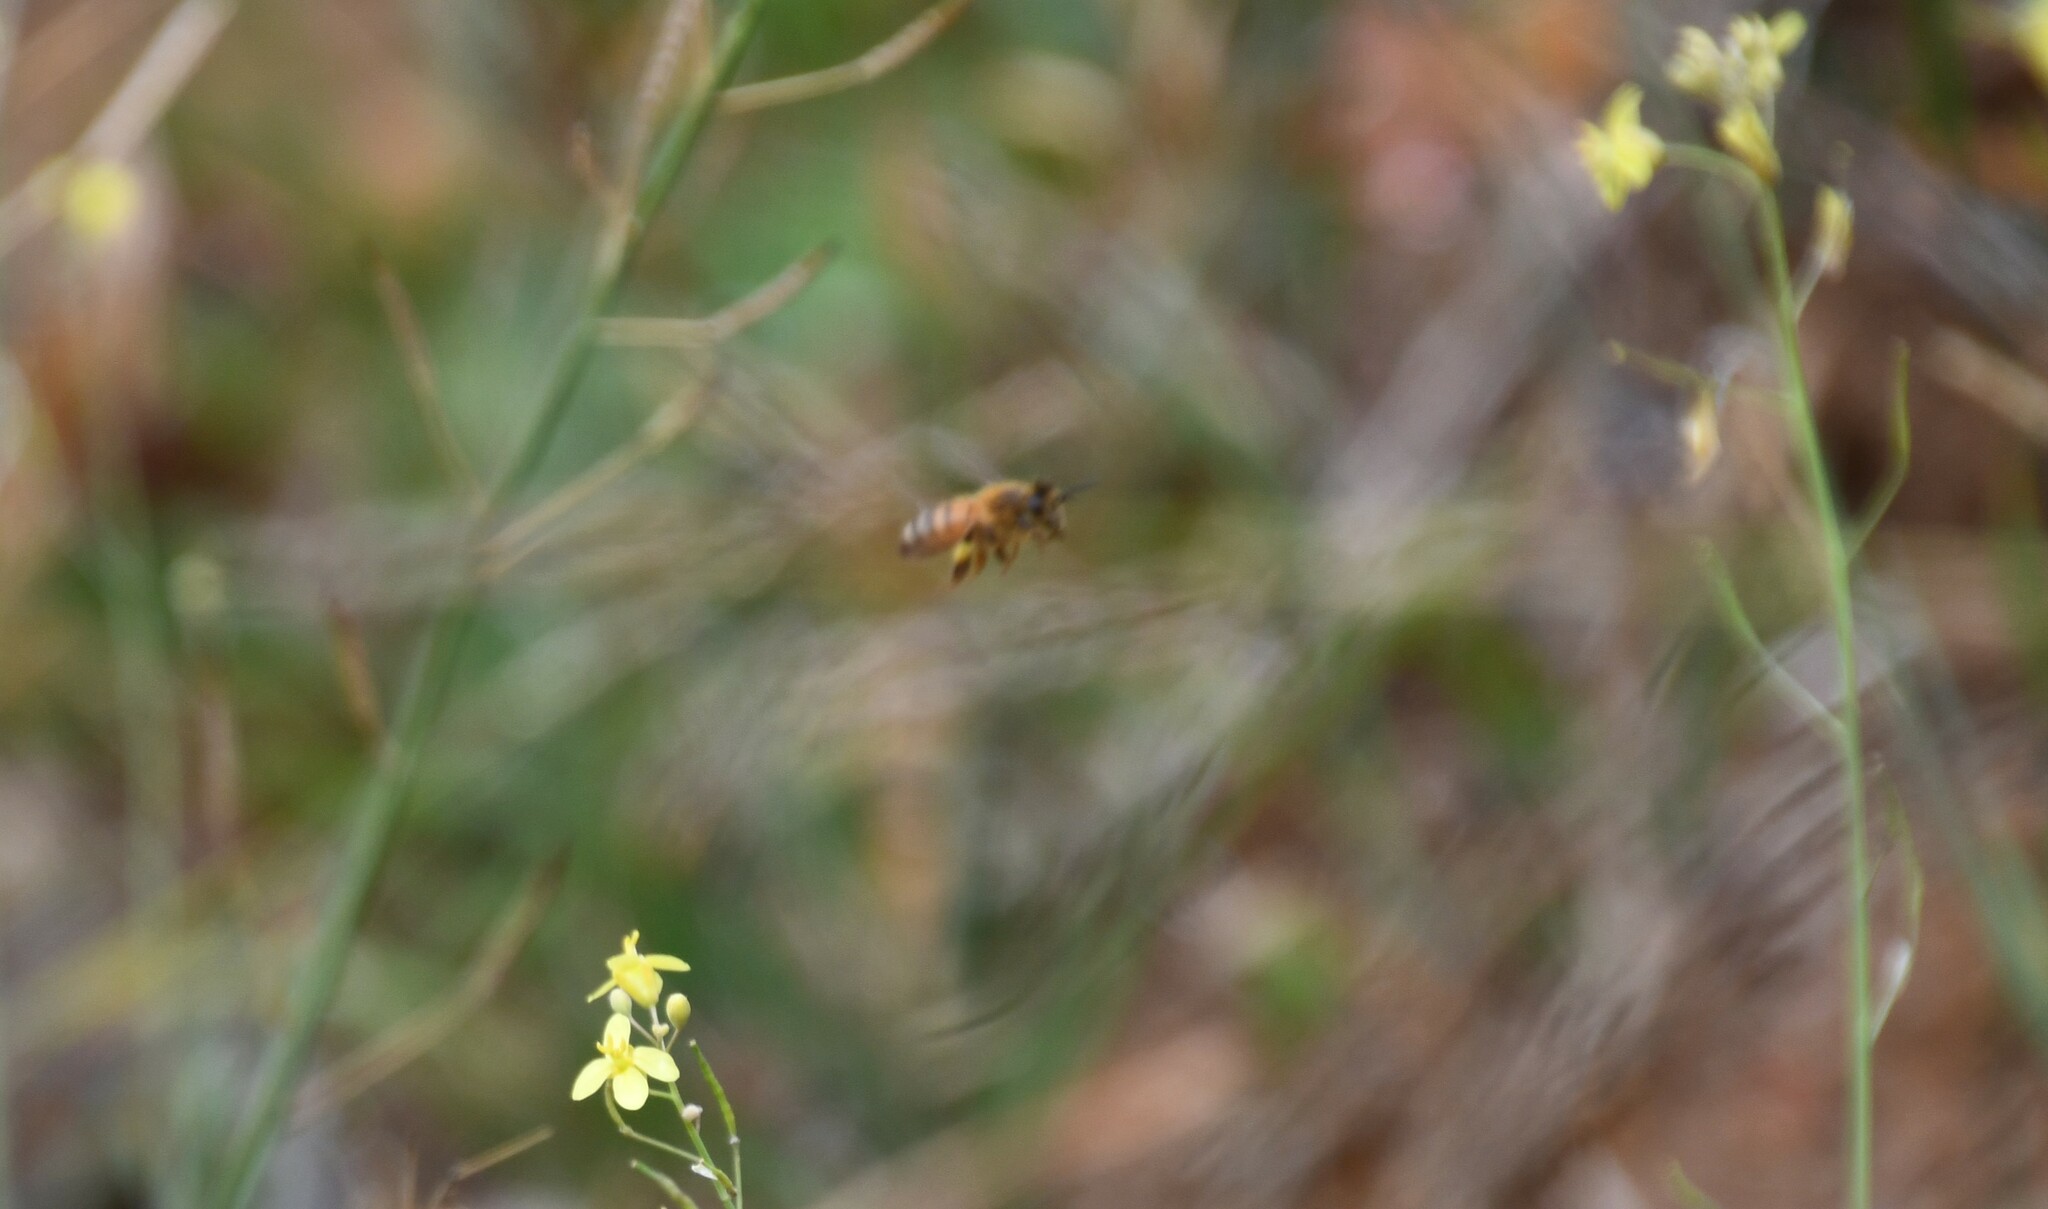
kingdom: Animalia
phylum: Arthropoda
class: Insecta
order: Hymenoptera
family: Apidae
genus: Apis
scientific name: Apis mellifera
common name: Honey bee
